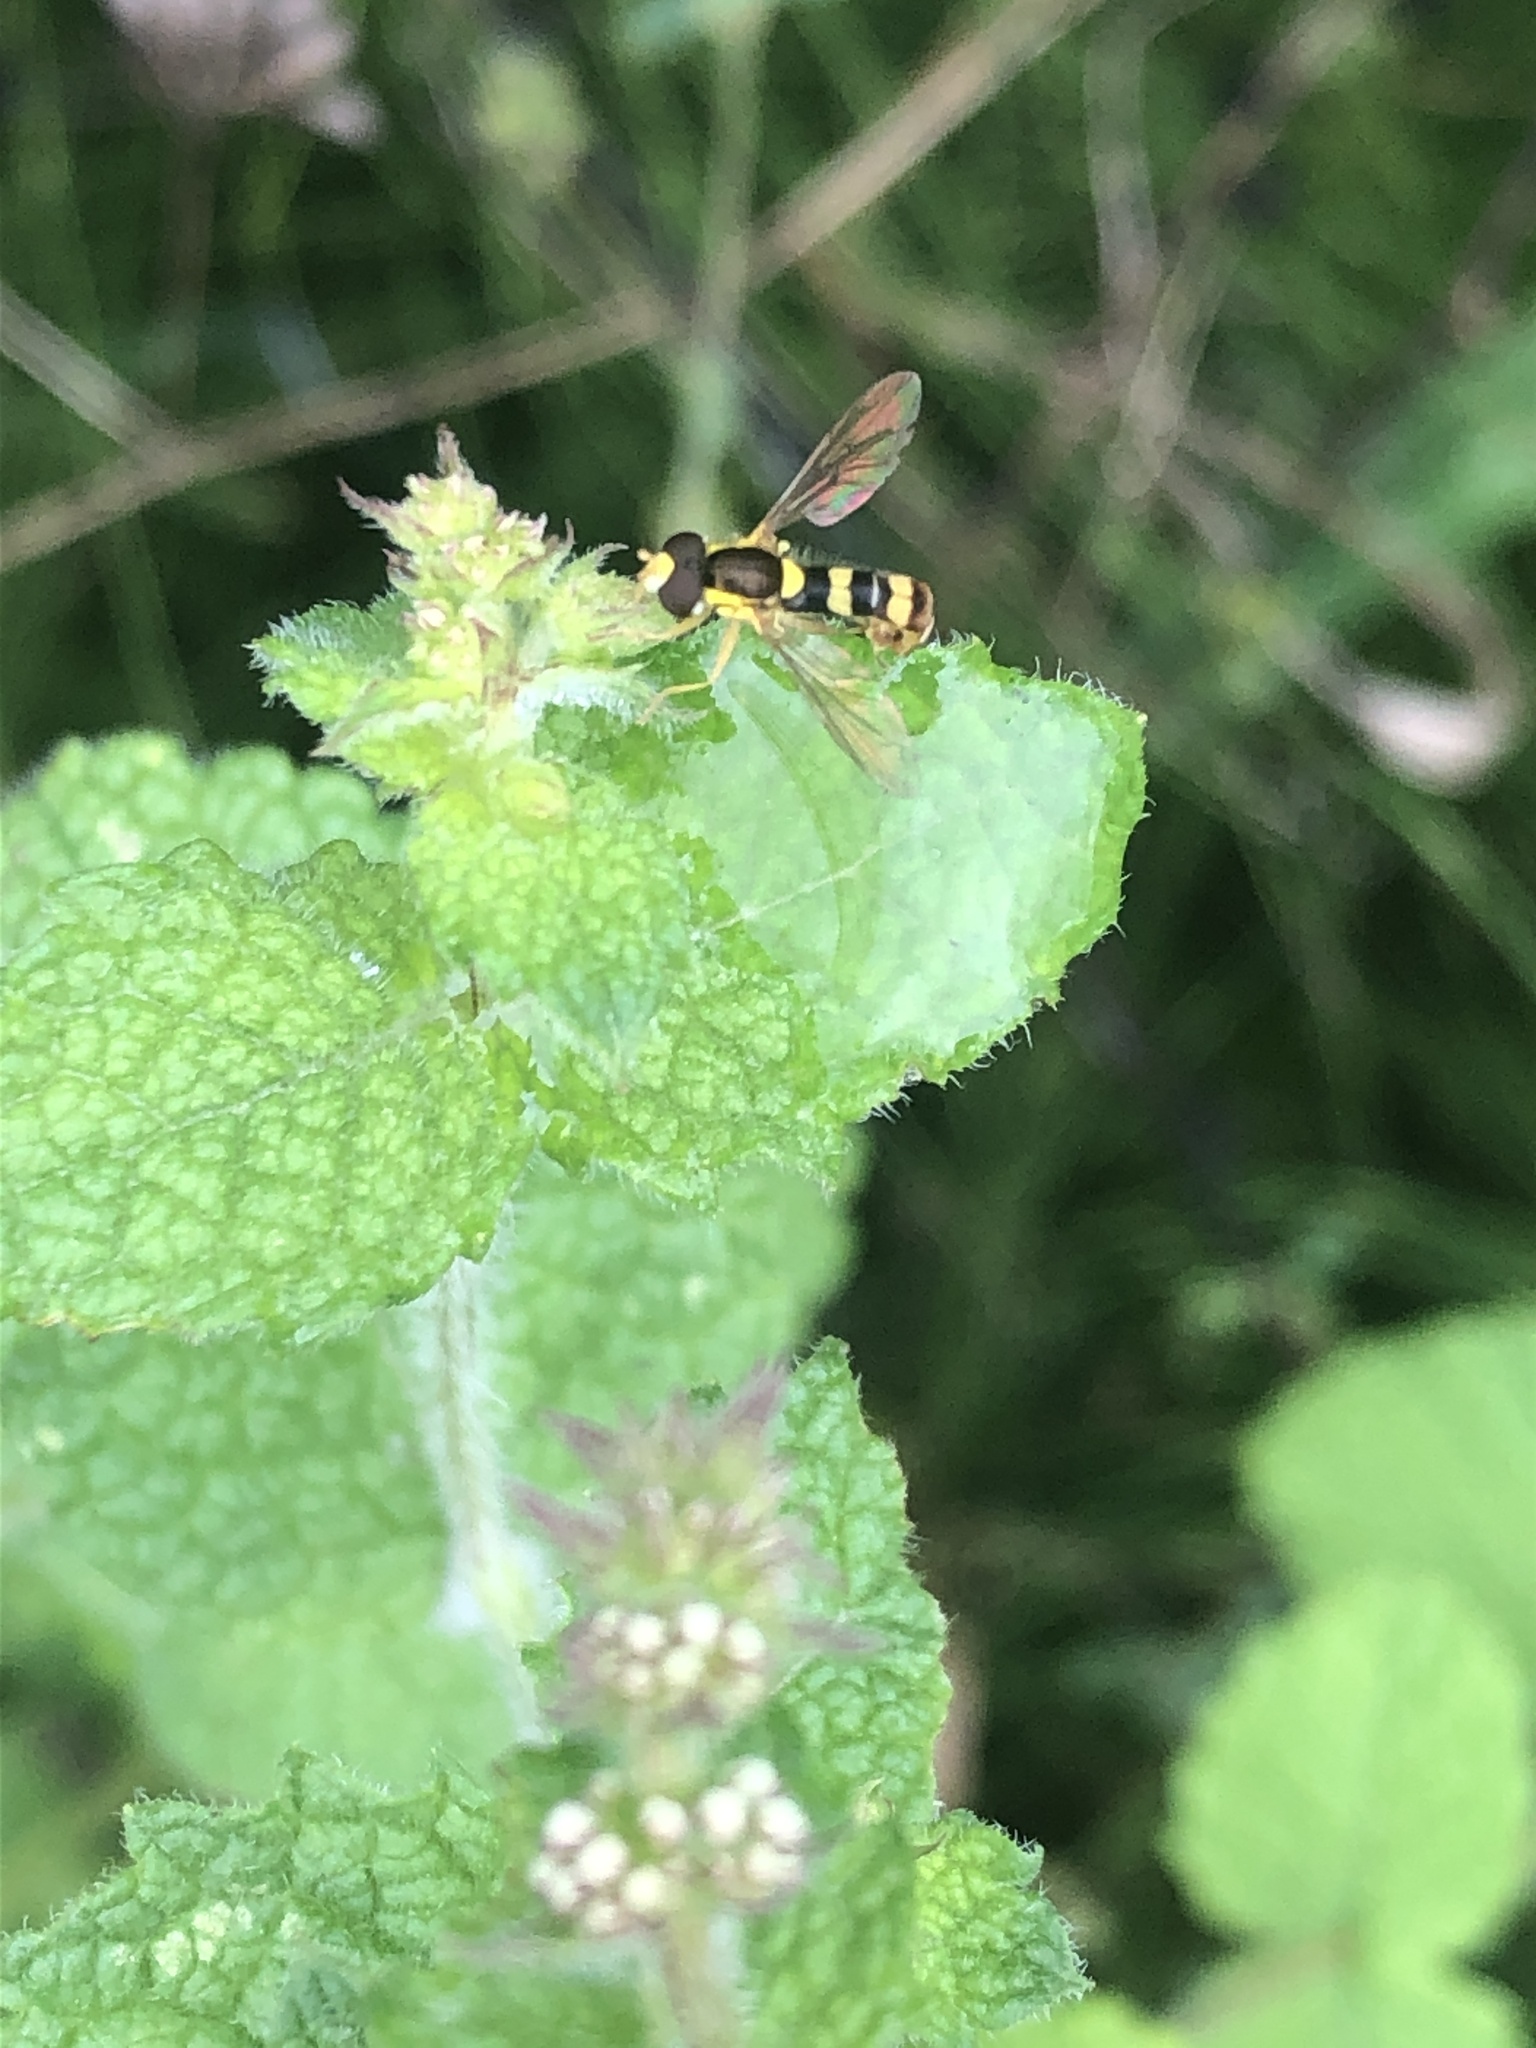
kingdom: Animalia
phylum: Arthropoda
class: Insecta
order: Diptera
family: Syrphidae
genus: Sphaerophoria
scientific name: Sphaerophoria scripta
